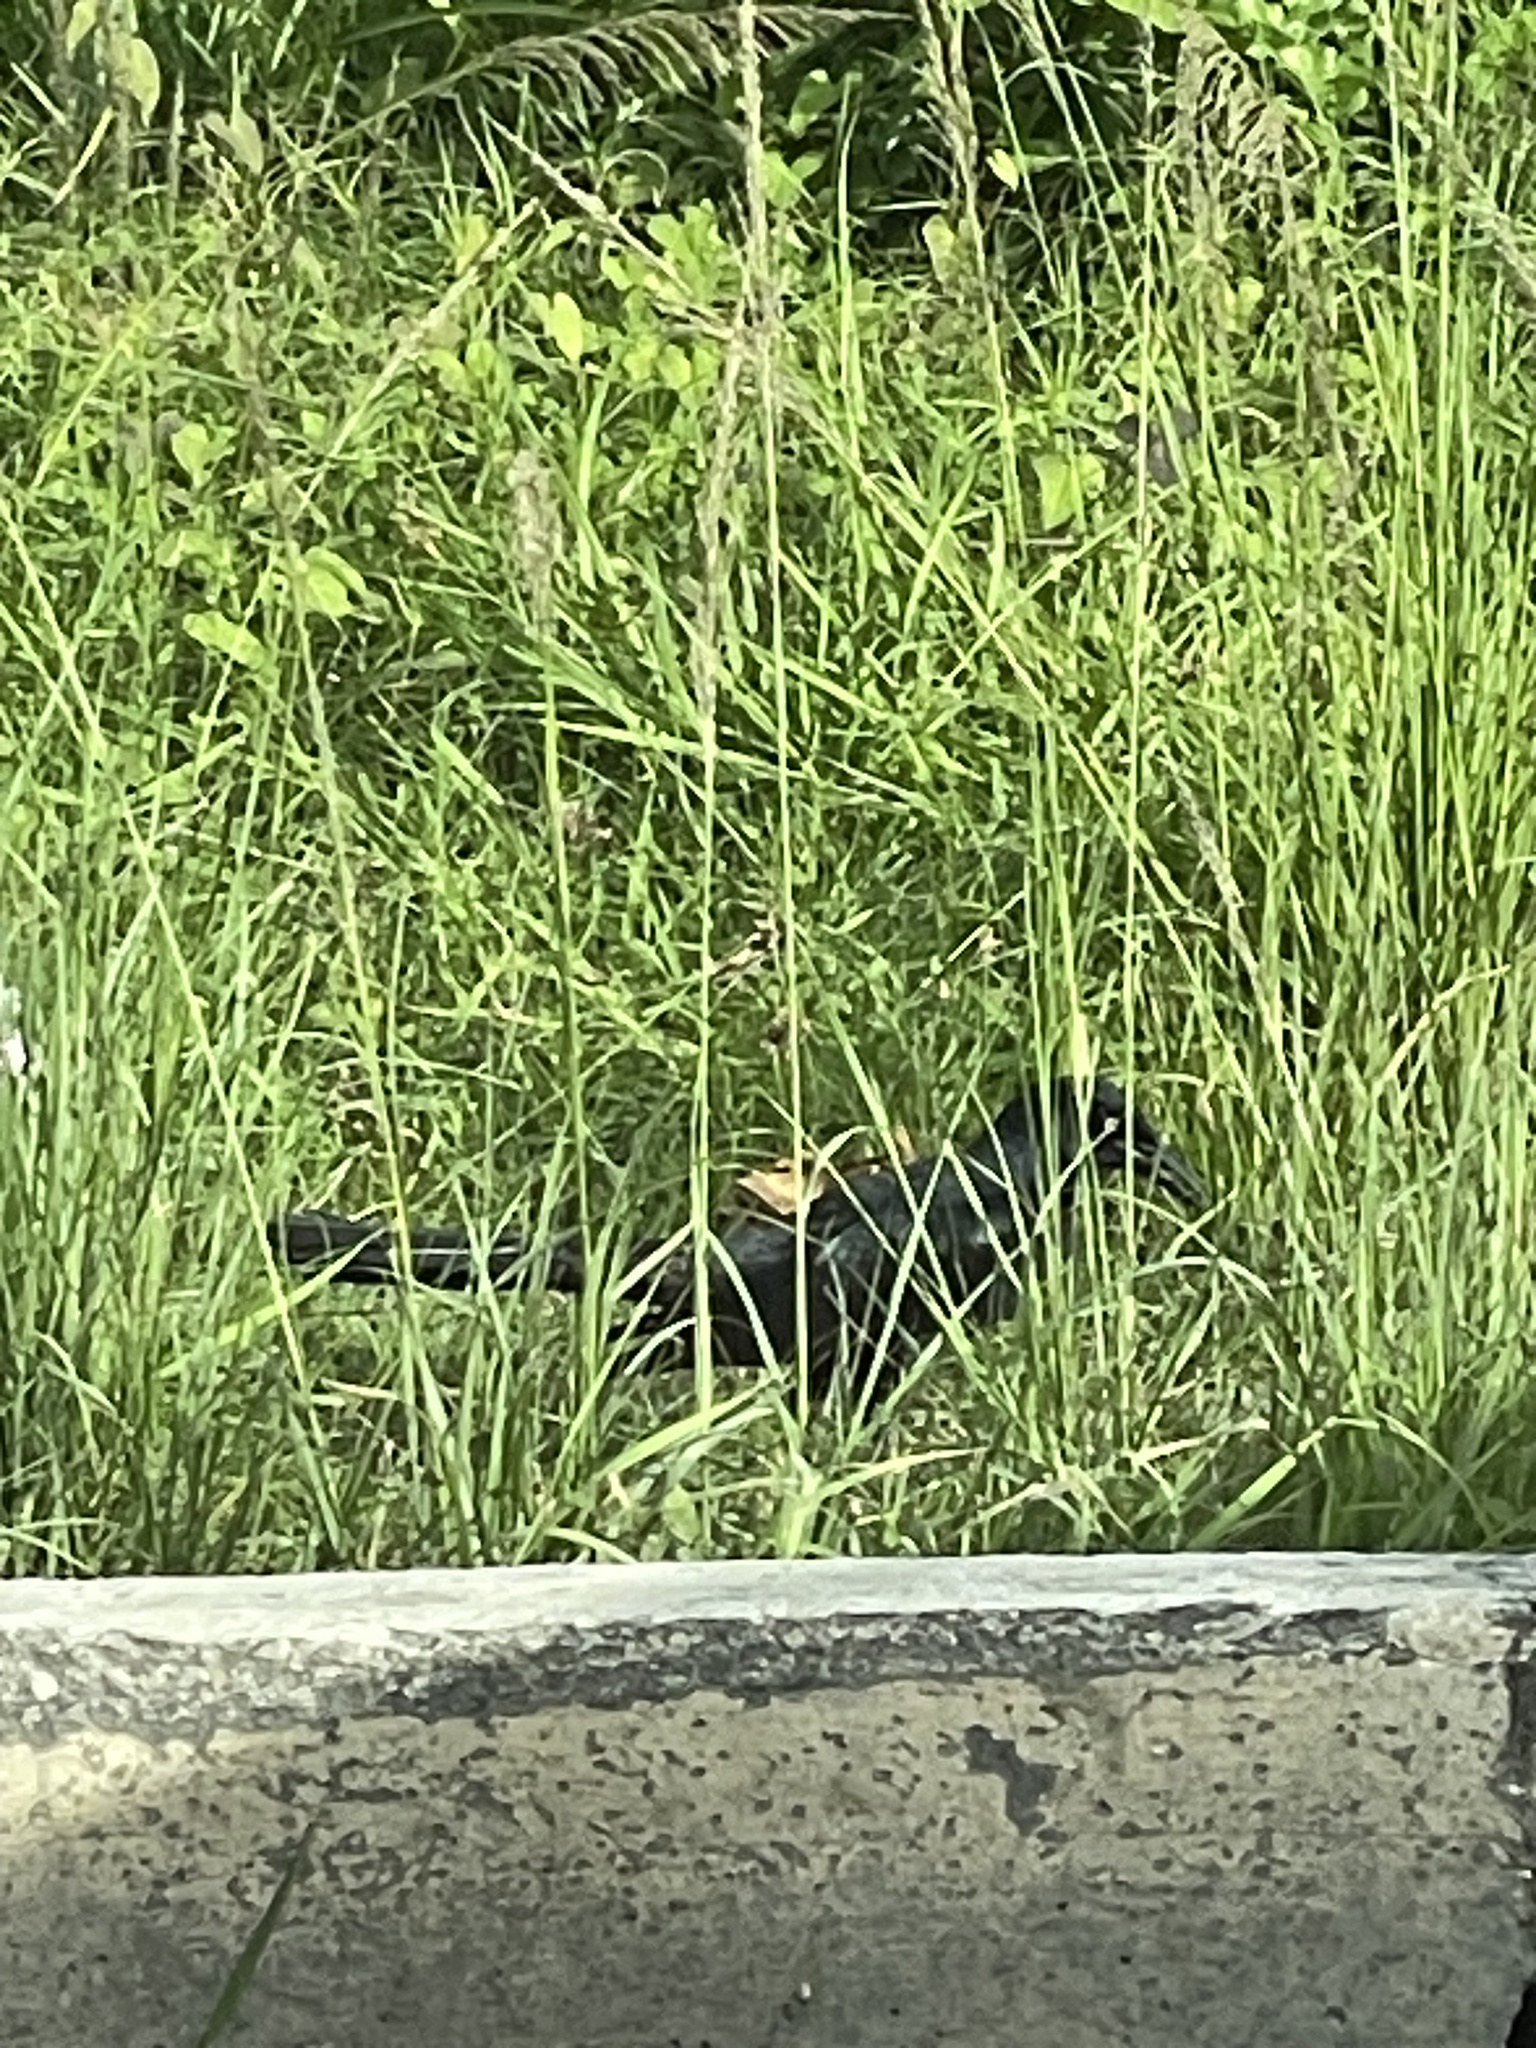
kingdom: Animalia
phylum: Chordata
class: Aves
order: Passeriformes
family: Icteridae
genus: Quiscalus
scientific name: Quiscalus mexicanus
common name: Great-tailed grackle
